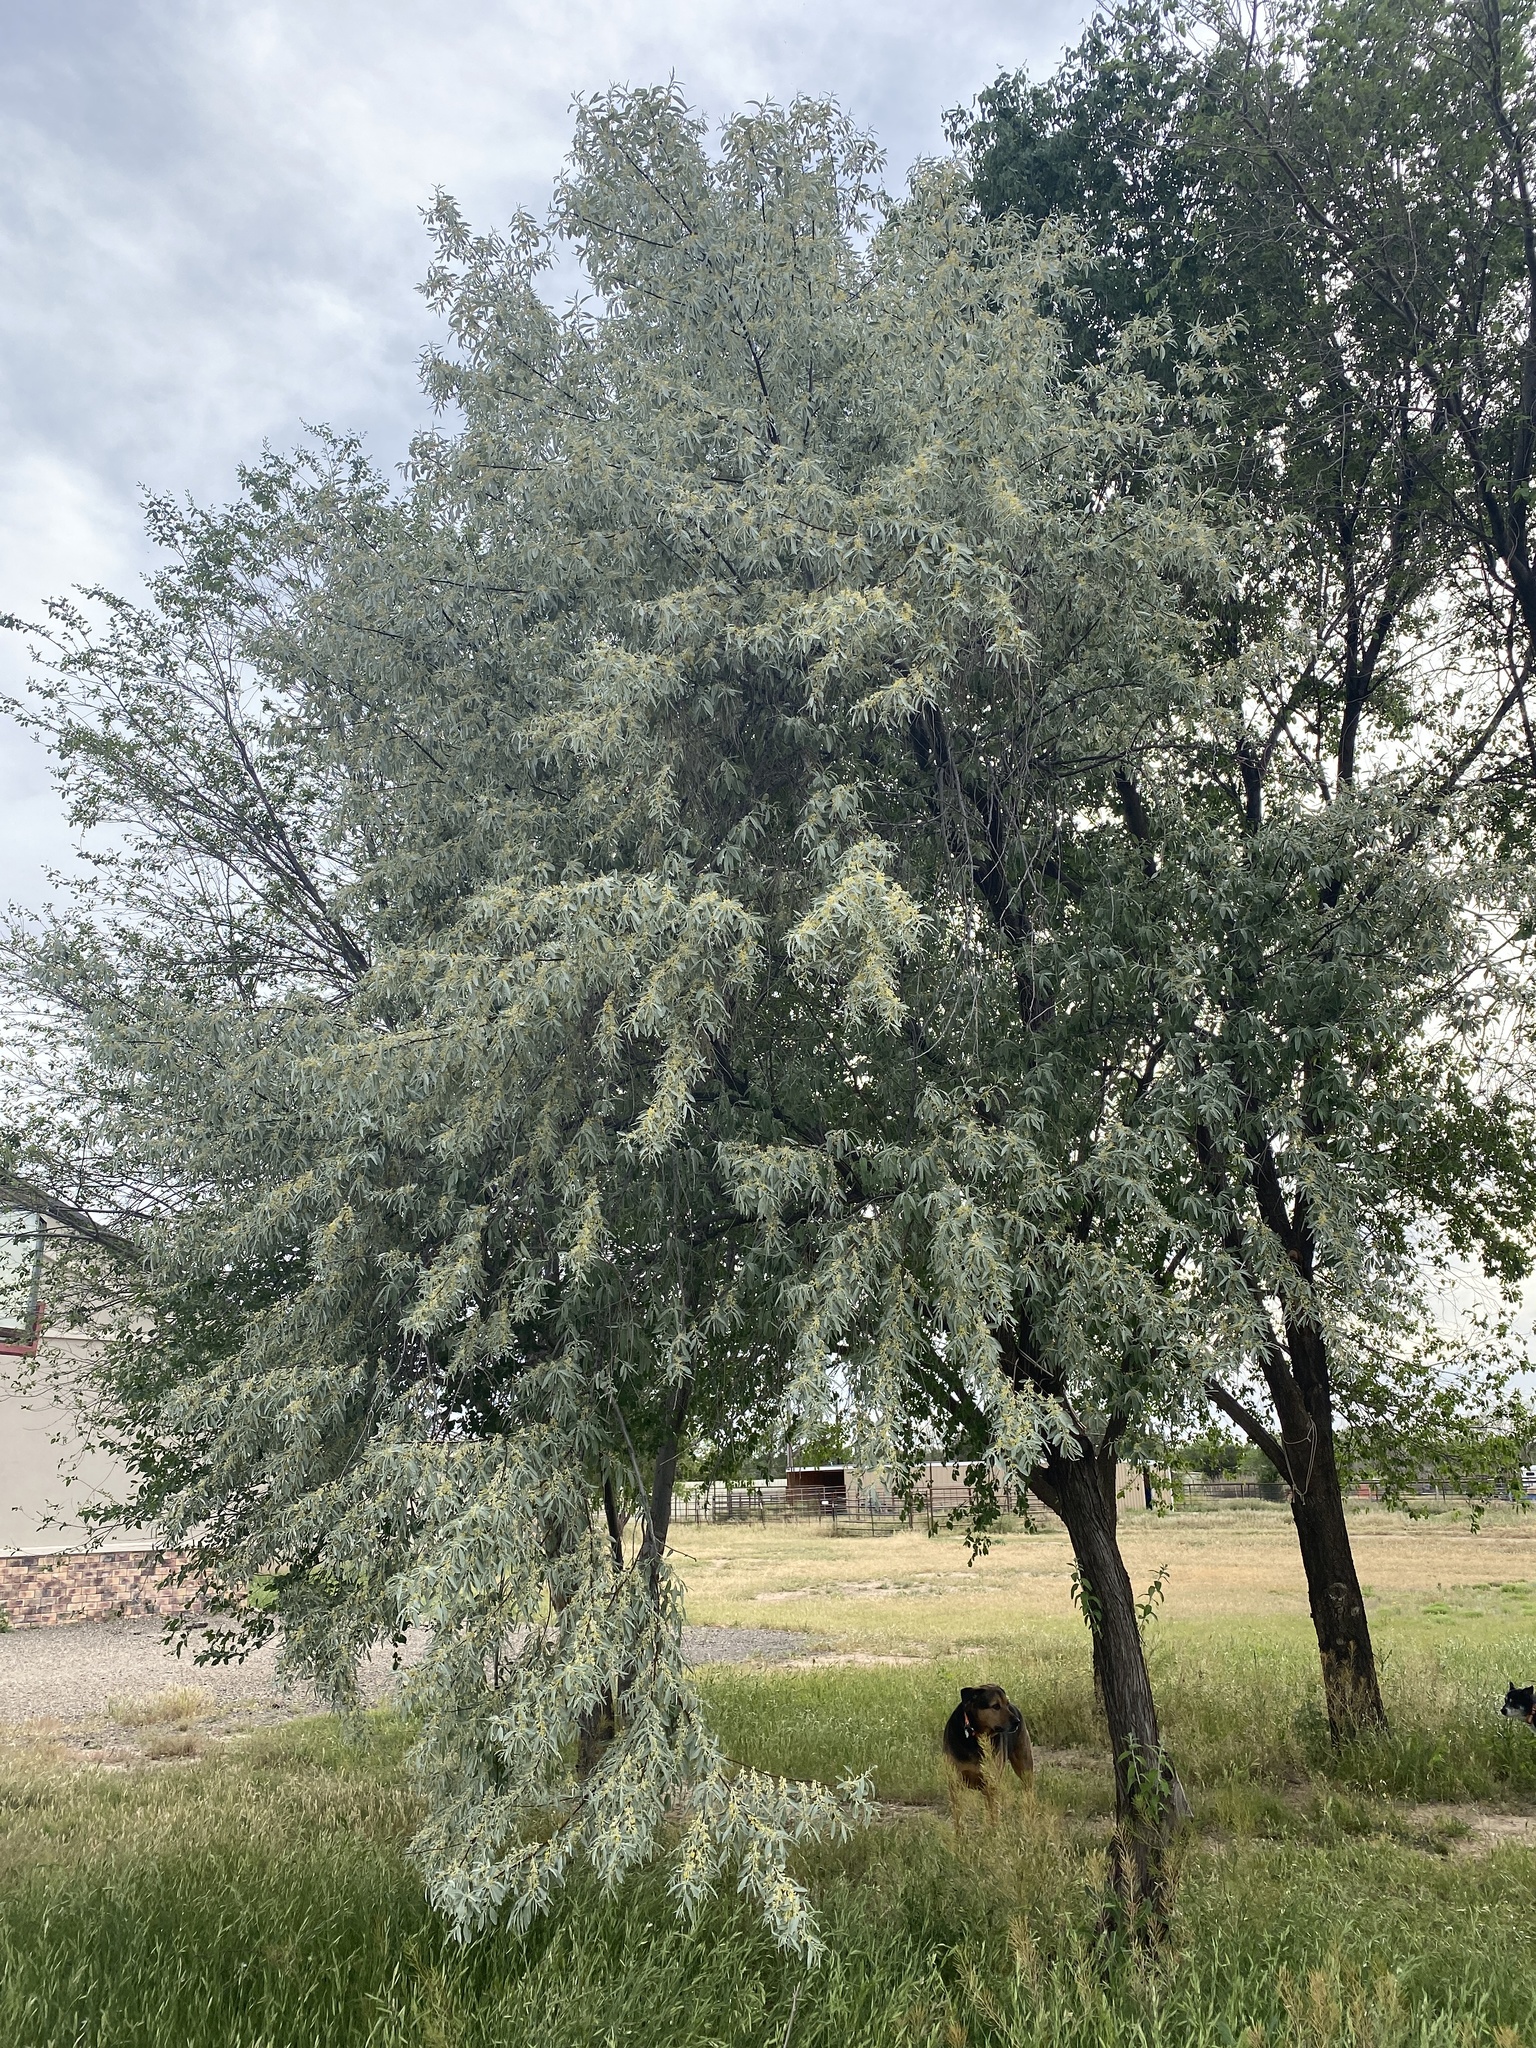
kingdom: Plantae
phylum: Tracheophyta
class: Magnoliopsida
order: Rosales
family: Elaeagnaceae
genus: Elaeagnus
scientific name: Elaeagnus angustifolia
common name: Russian olive
